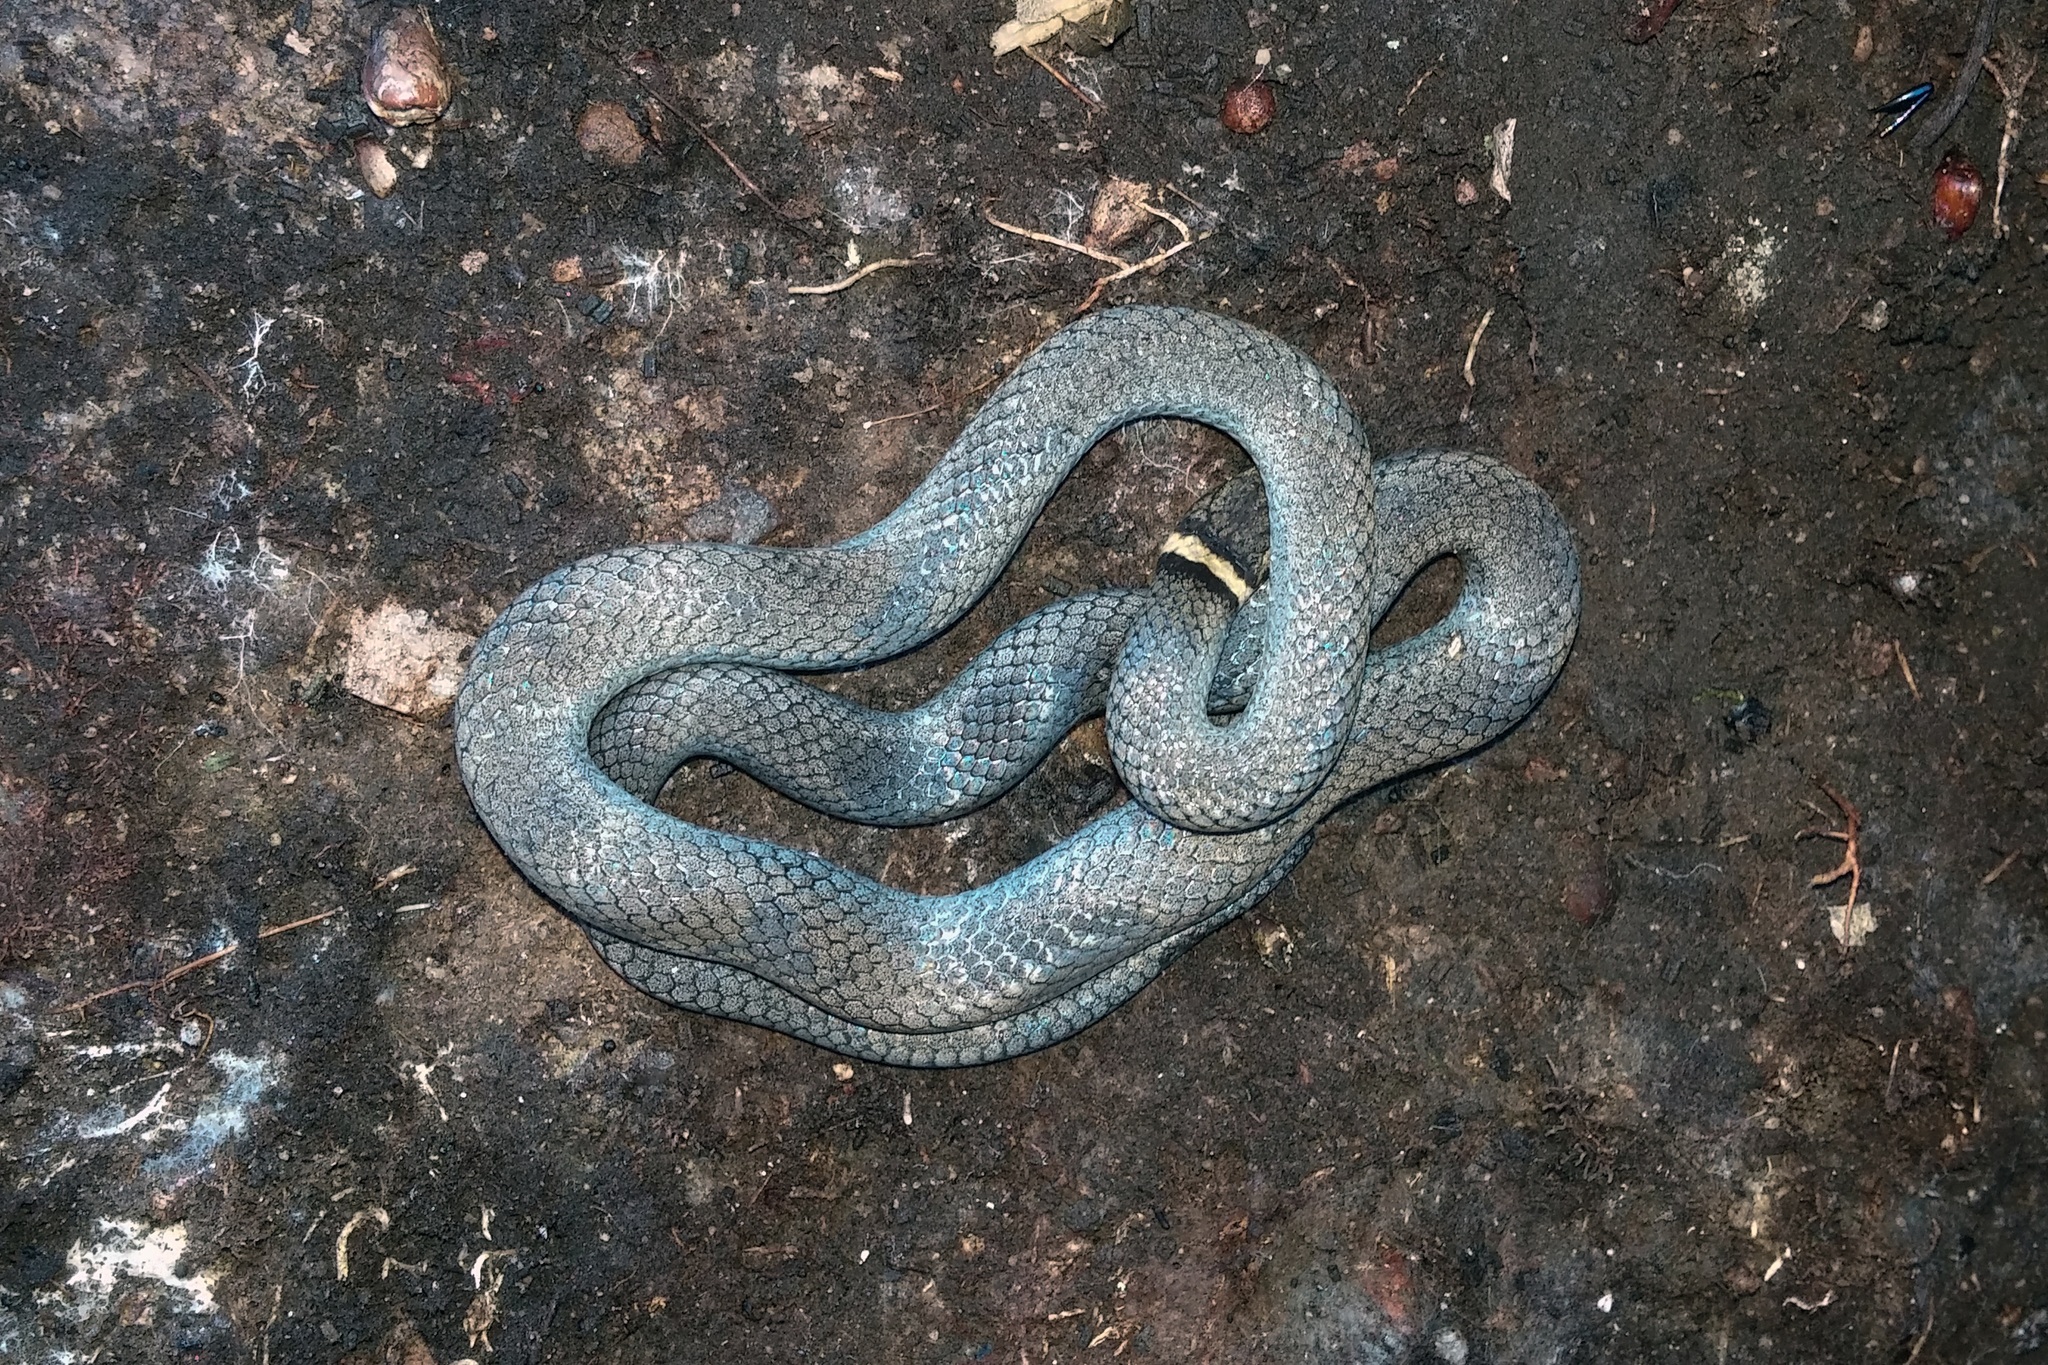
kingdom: Animalia
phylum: Chordata
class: Squamata
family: Colubridae
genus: Diadophis
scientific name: Diadophis punctatus
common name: Ringneck snake
